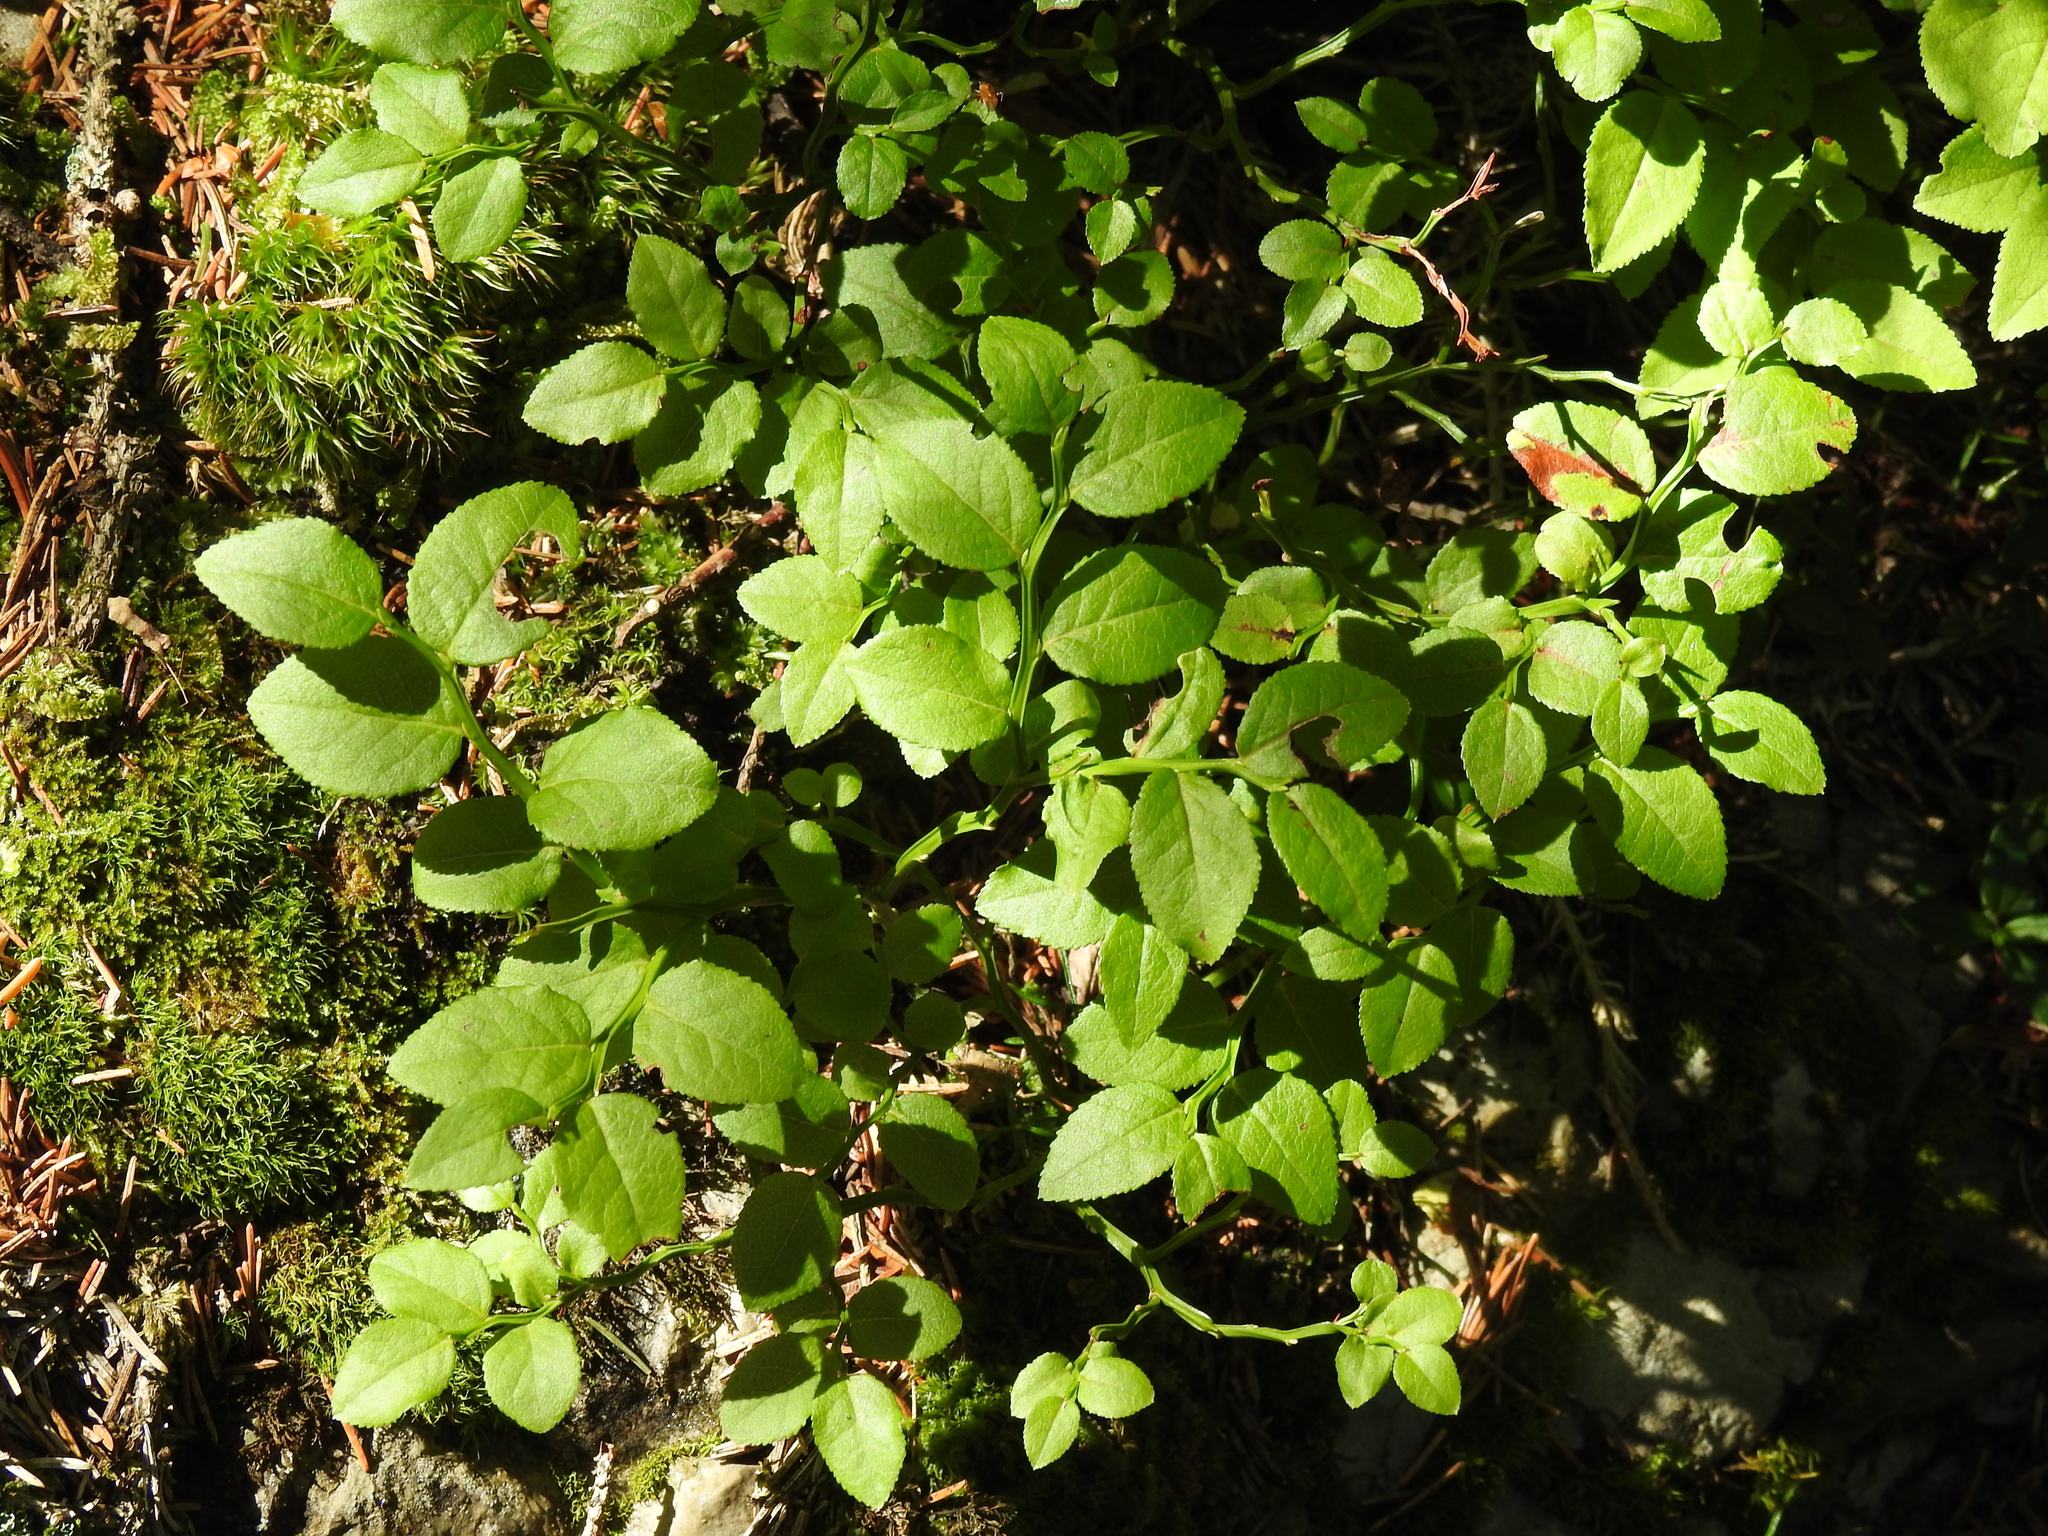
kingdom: Plantae
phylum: Tracheophyta
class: Magnoliopsida
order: Ericales
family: Ericaceae
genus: Vaccinium
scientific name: Vaccinium myrtillus
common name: Bilberry
